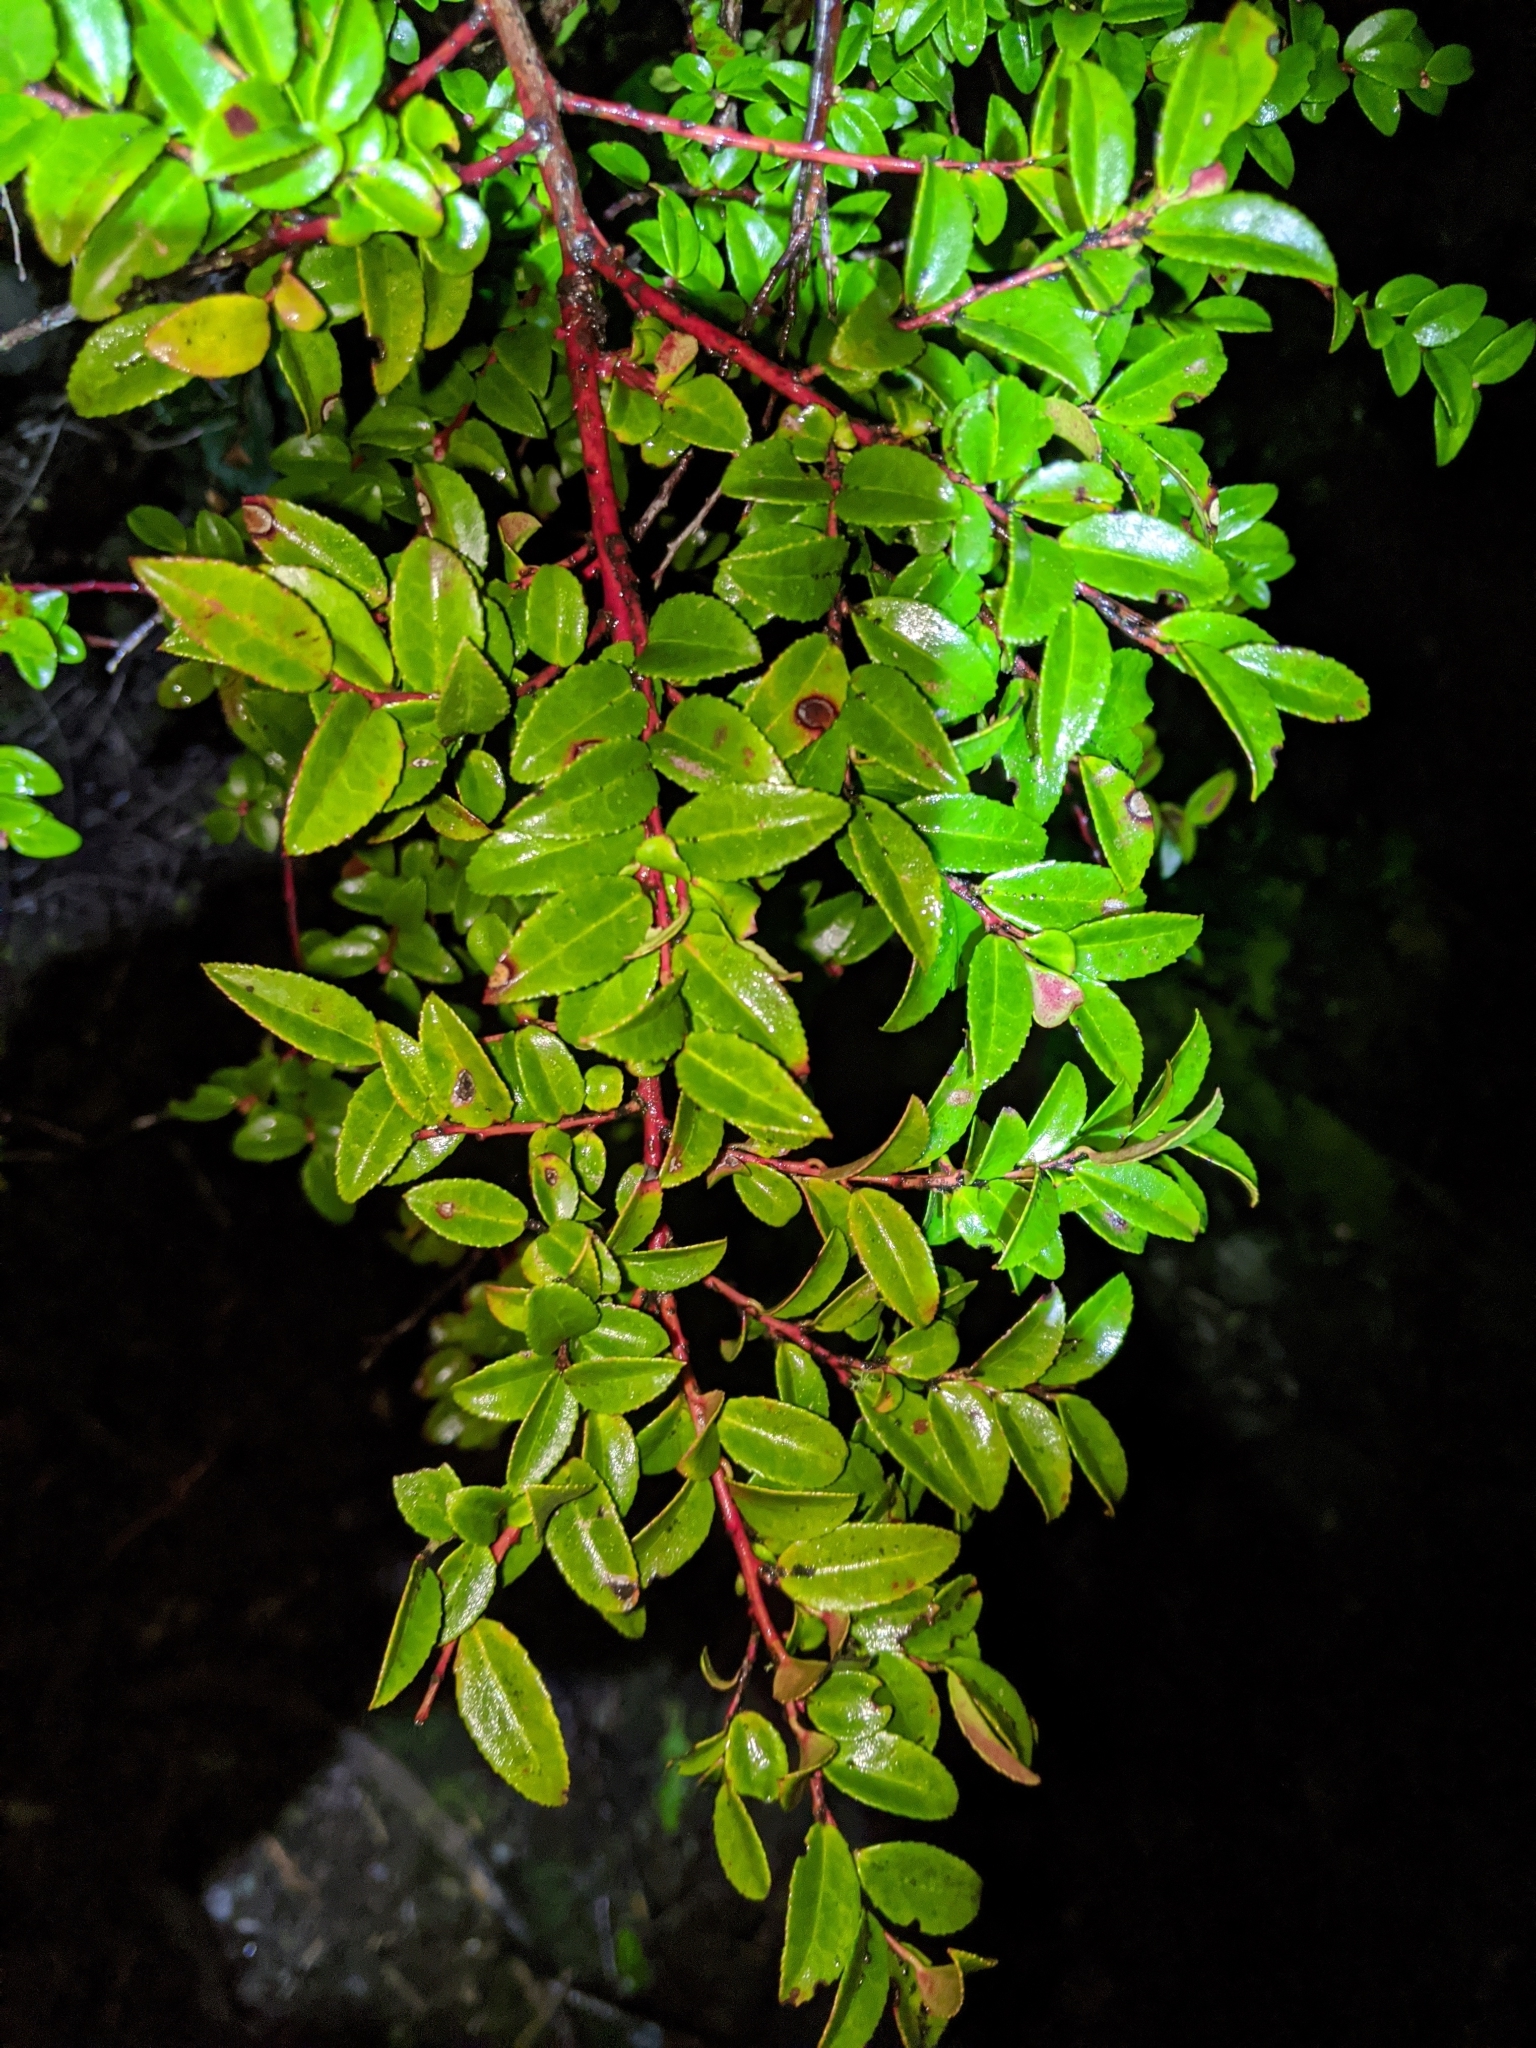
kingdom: Plantae
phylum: Tracheophyta
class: Magnoliopsida
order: Ericales
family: Ericaceae
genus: Vaccinium
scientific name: Vaccinium ovatum
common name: California-huckleberry
